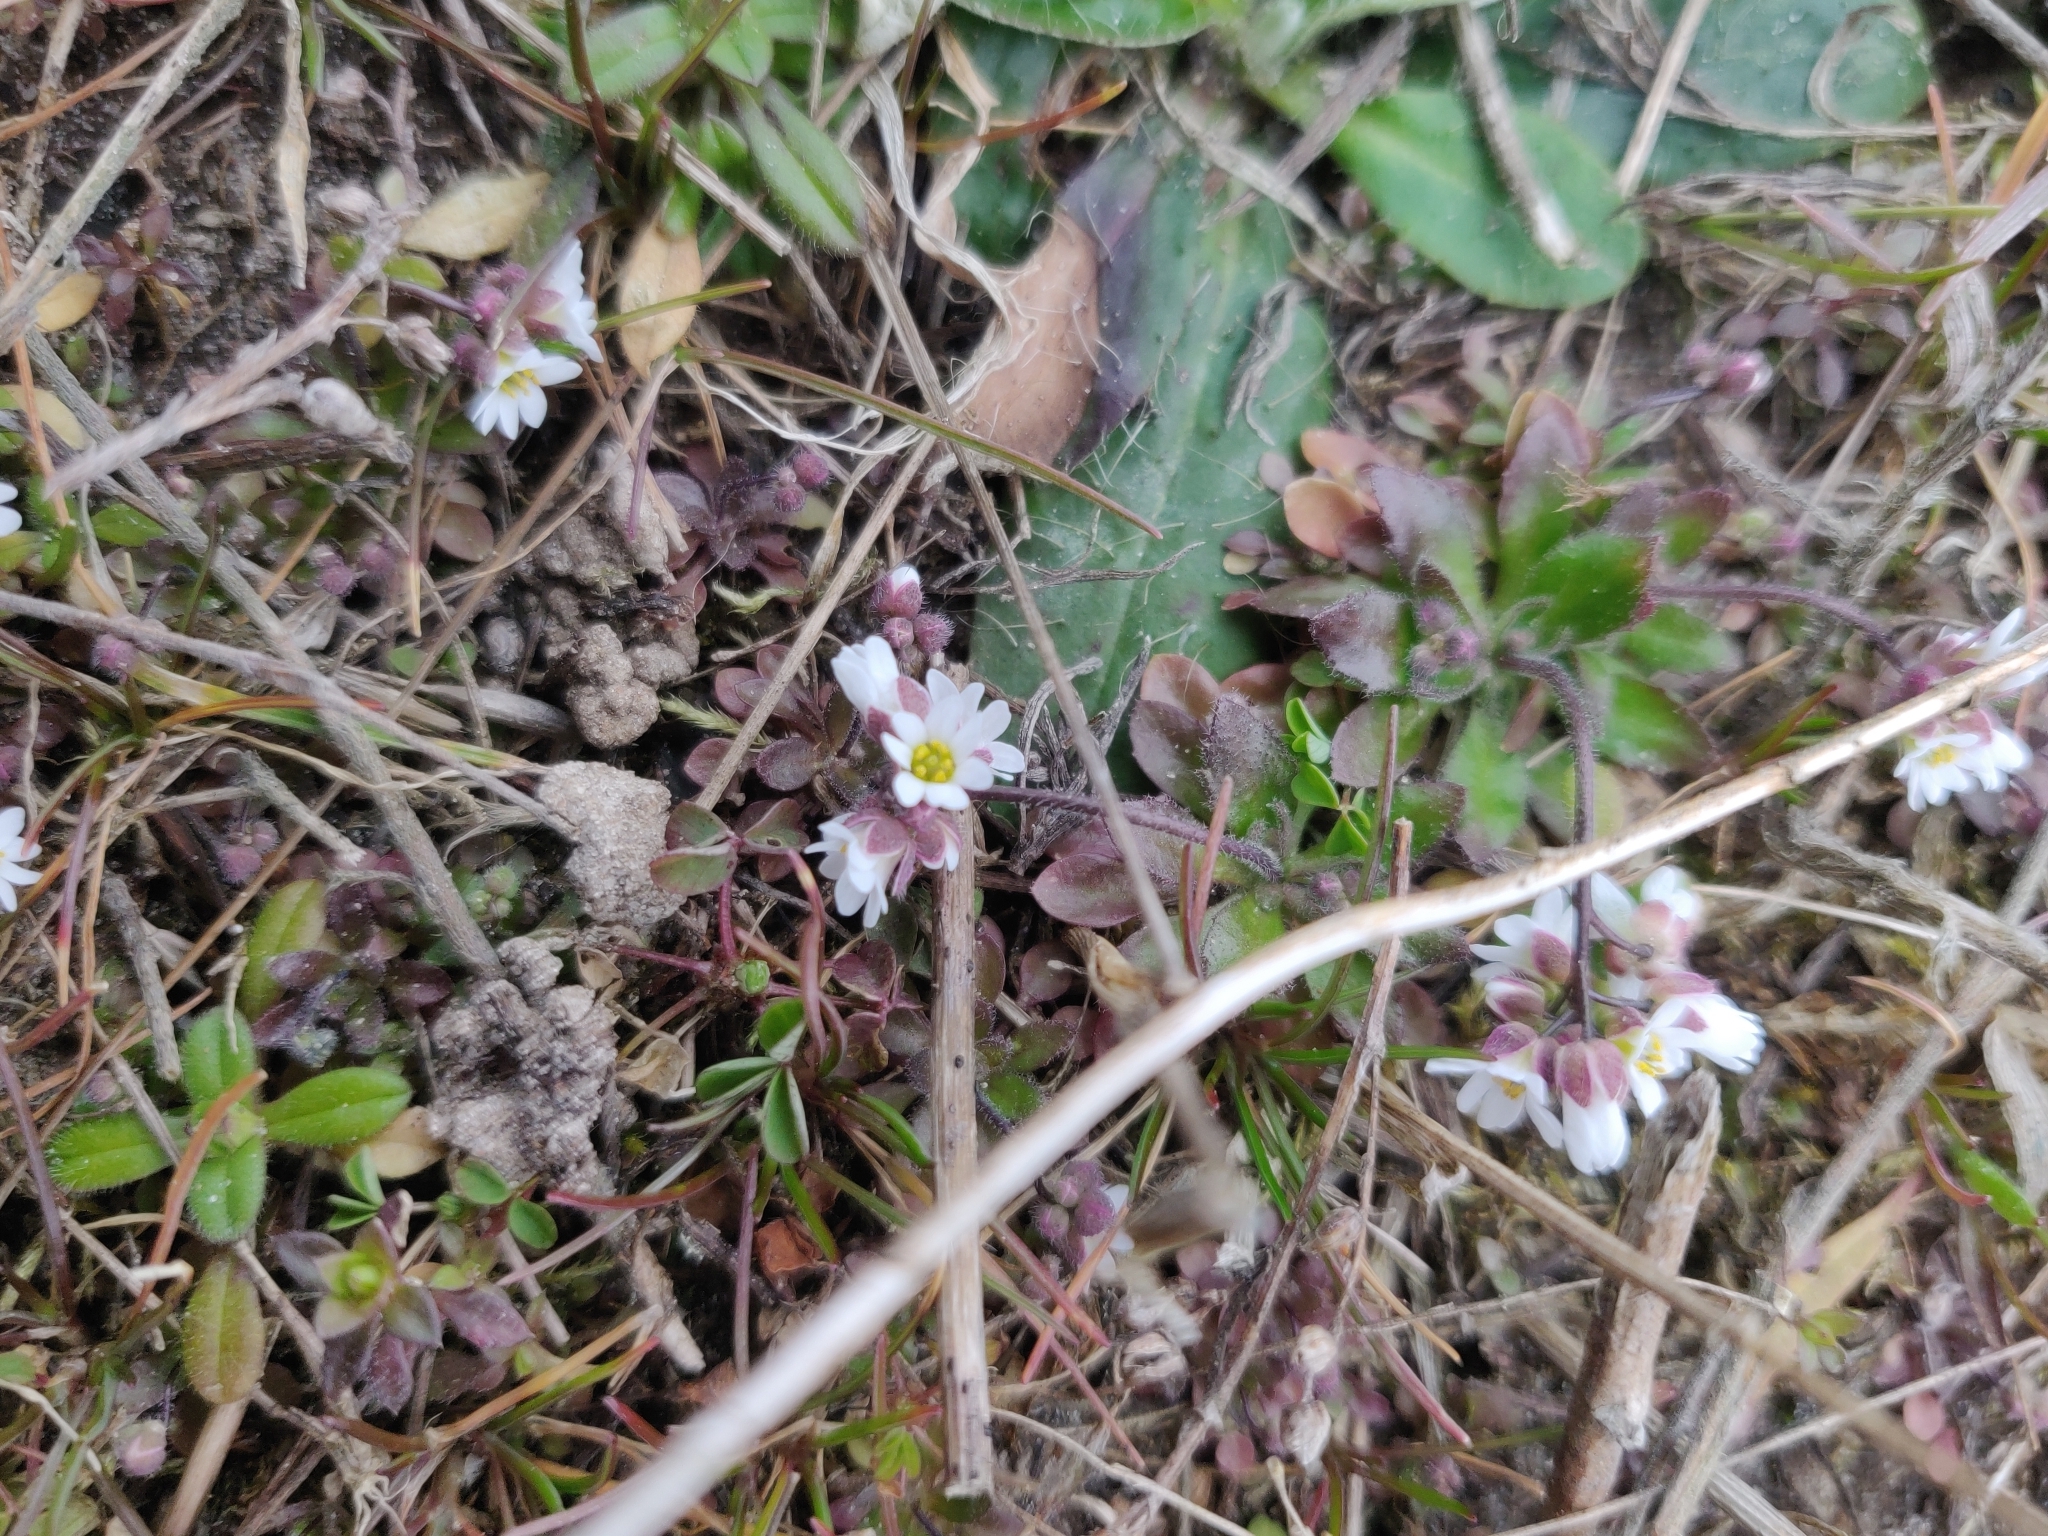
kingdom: Plantae
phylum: Tracheophyta
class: Magnoliopsida
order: Brassicales
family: Brassicaceae
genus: Draba
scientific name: Draba verna
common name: Spring draba
